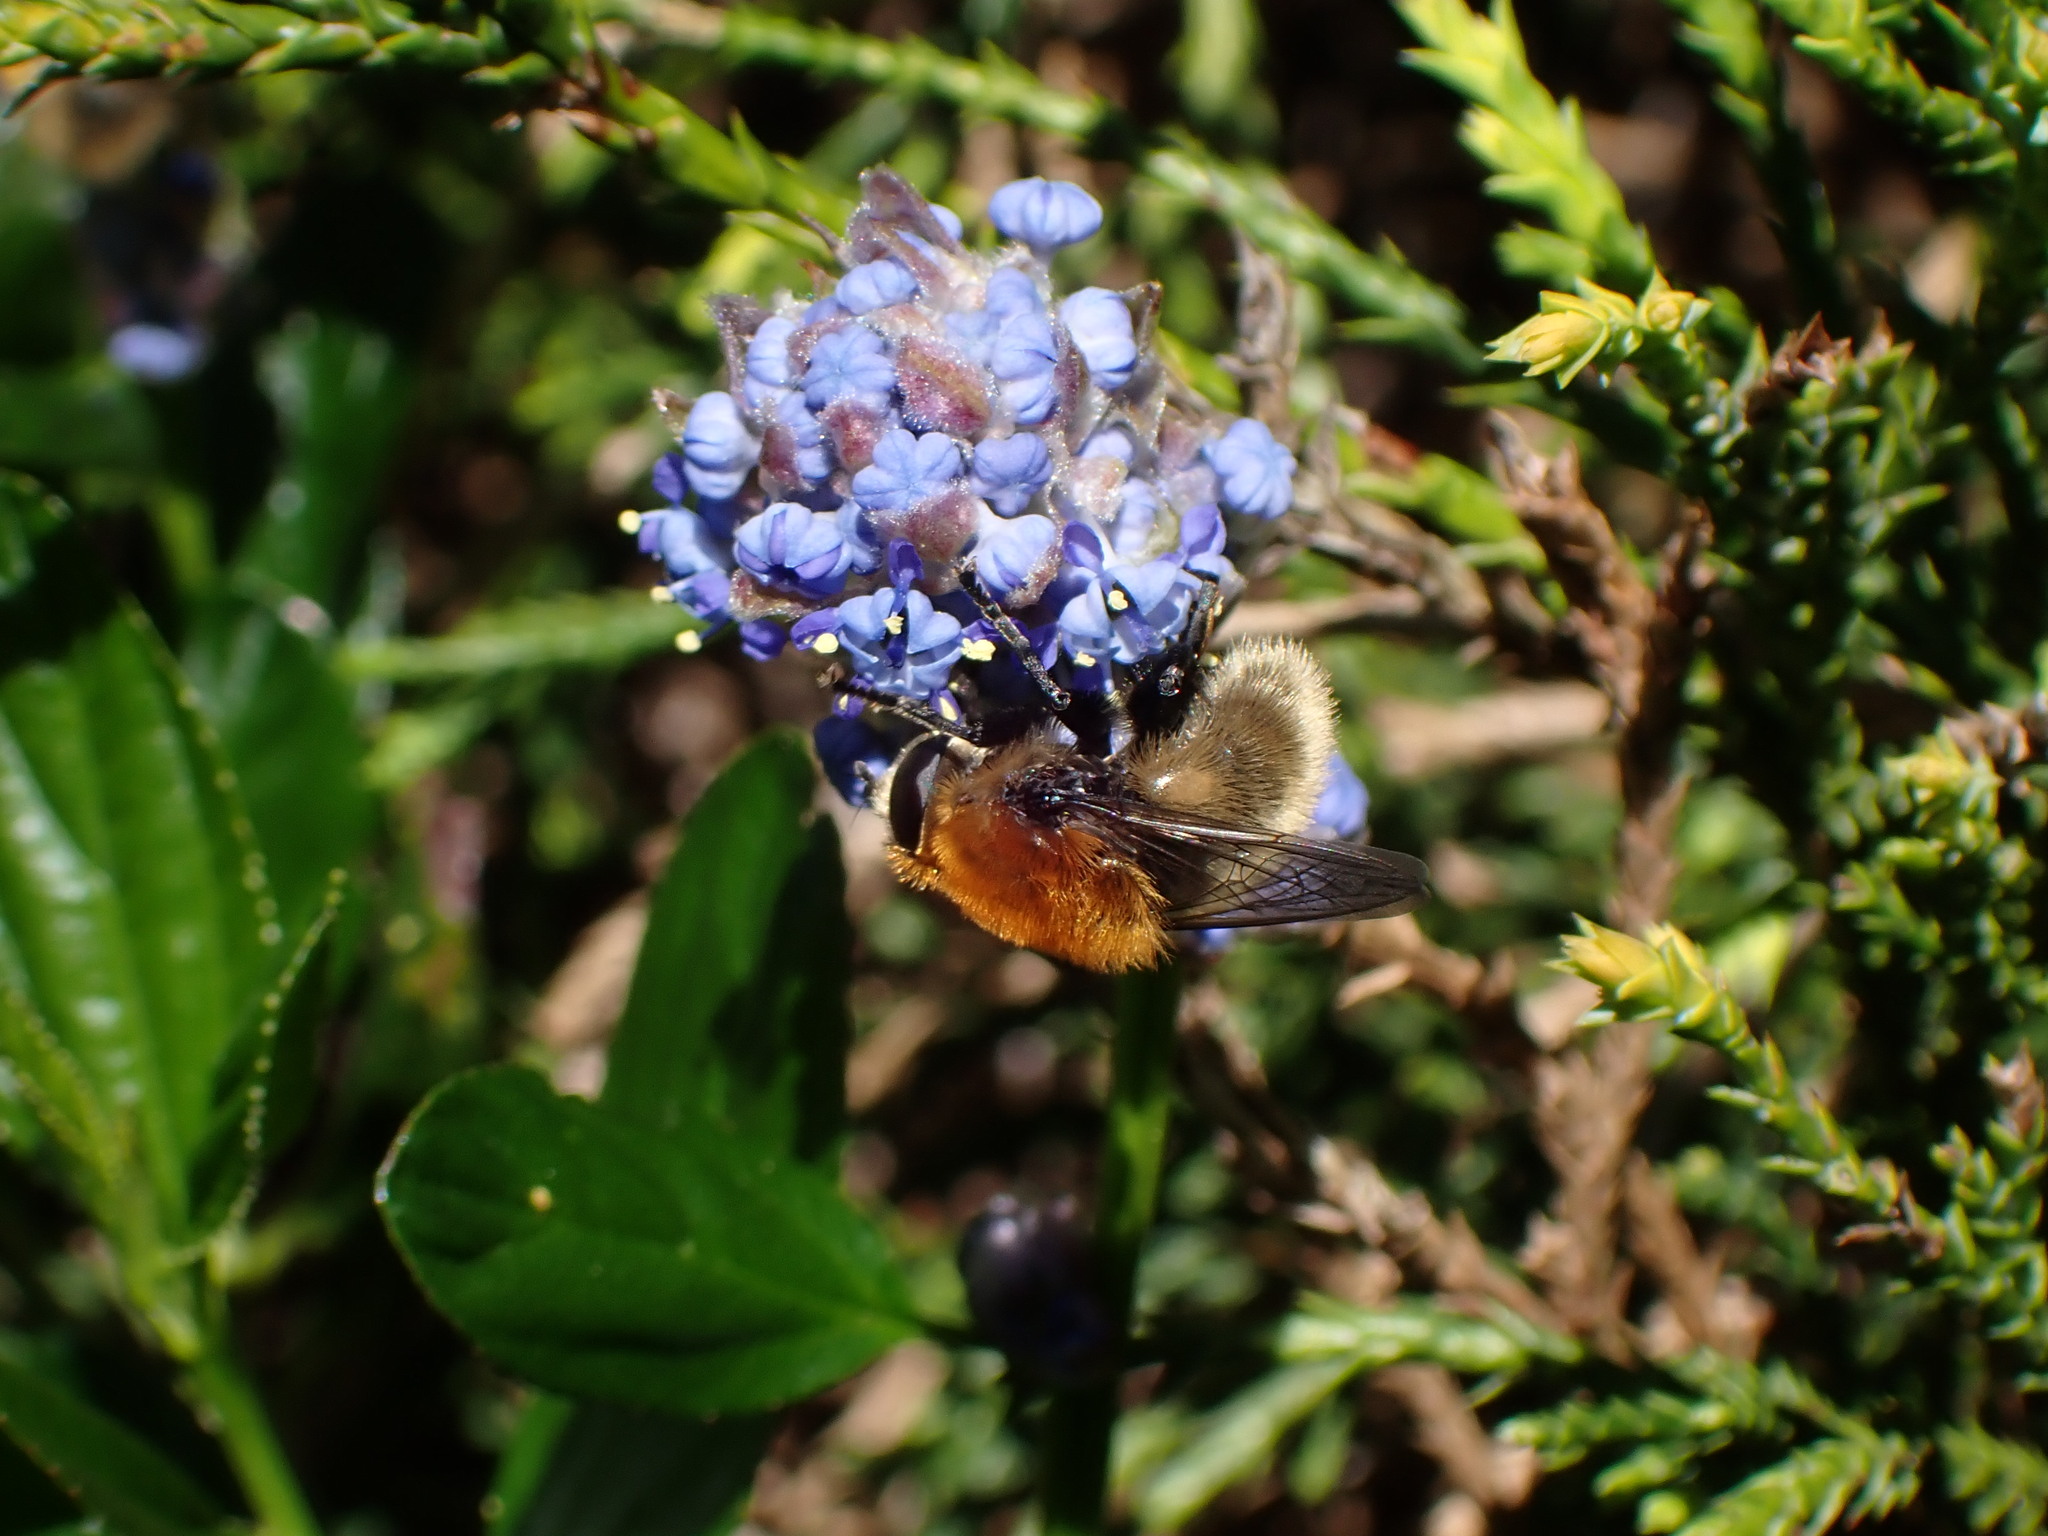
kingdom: Animalia
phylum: Arthropoda
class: Insecta
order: Diptera
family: Syrphidae
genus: Merodon
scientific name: Merodon equestris
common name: Greater bulb-fly
